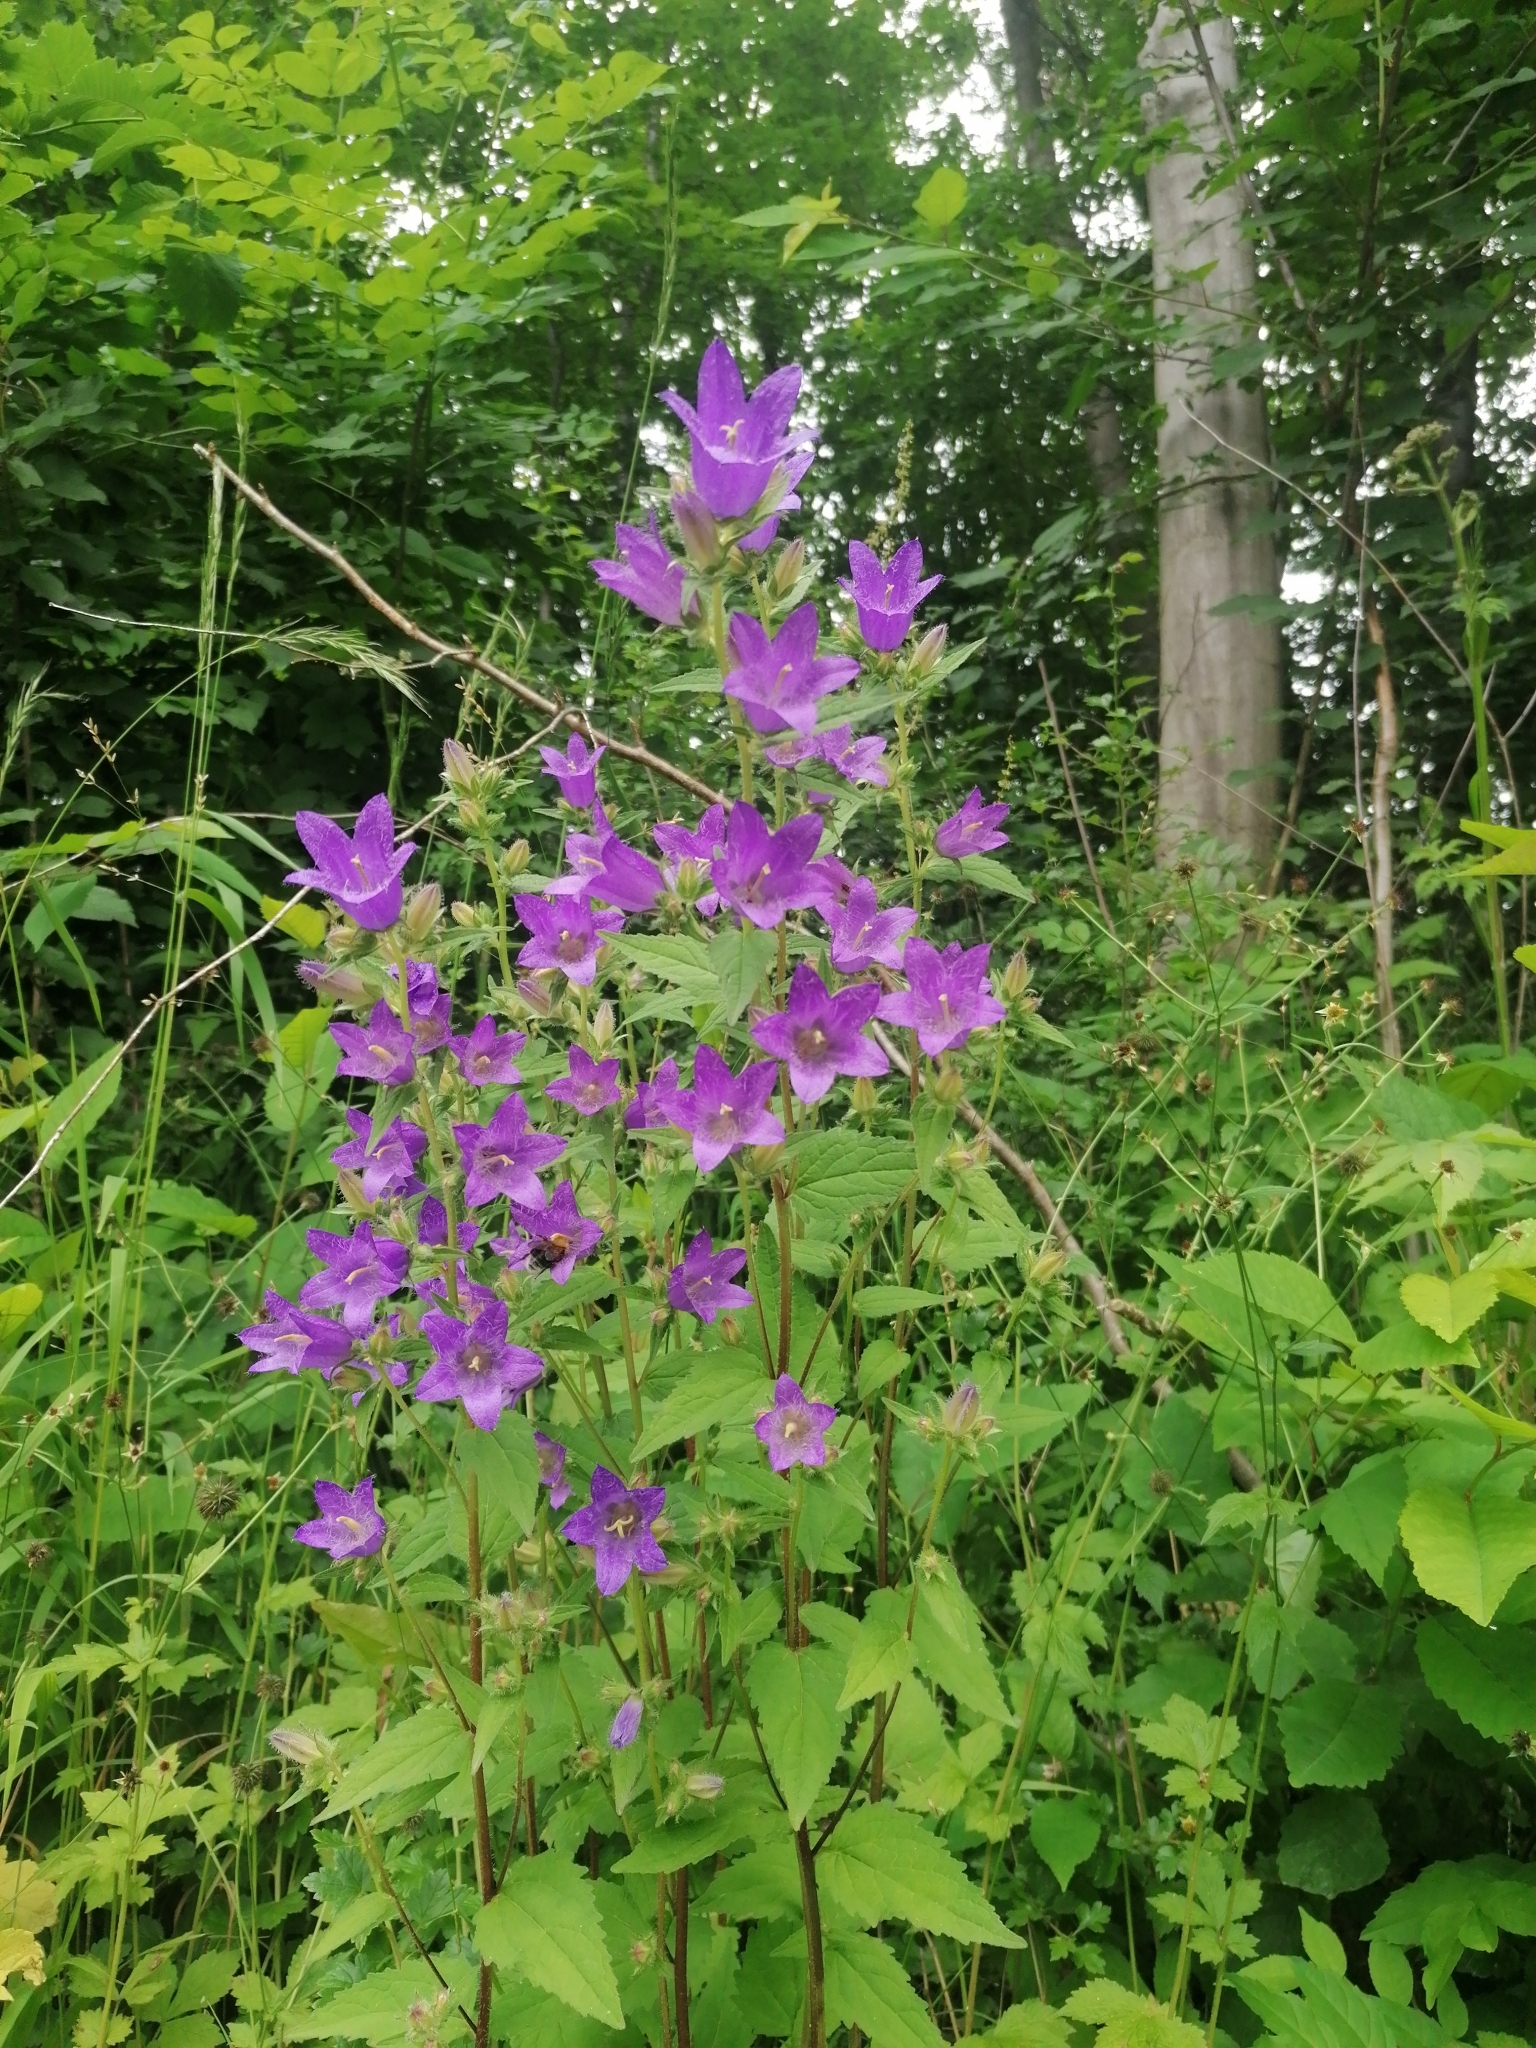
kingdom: Plantae
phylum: Tracheophyta
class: Magnoliopsida
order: Asterales
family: Campanulaceae
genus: Campanula
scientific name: Campanula trachelium
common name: Nettle-leaved bellflower
